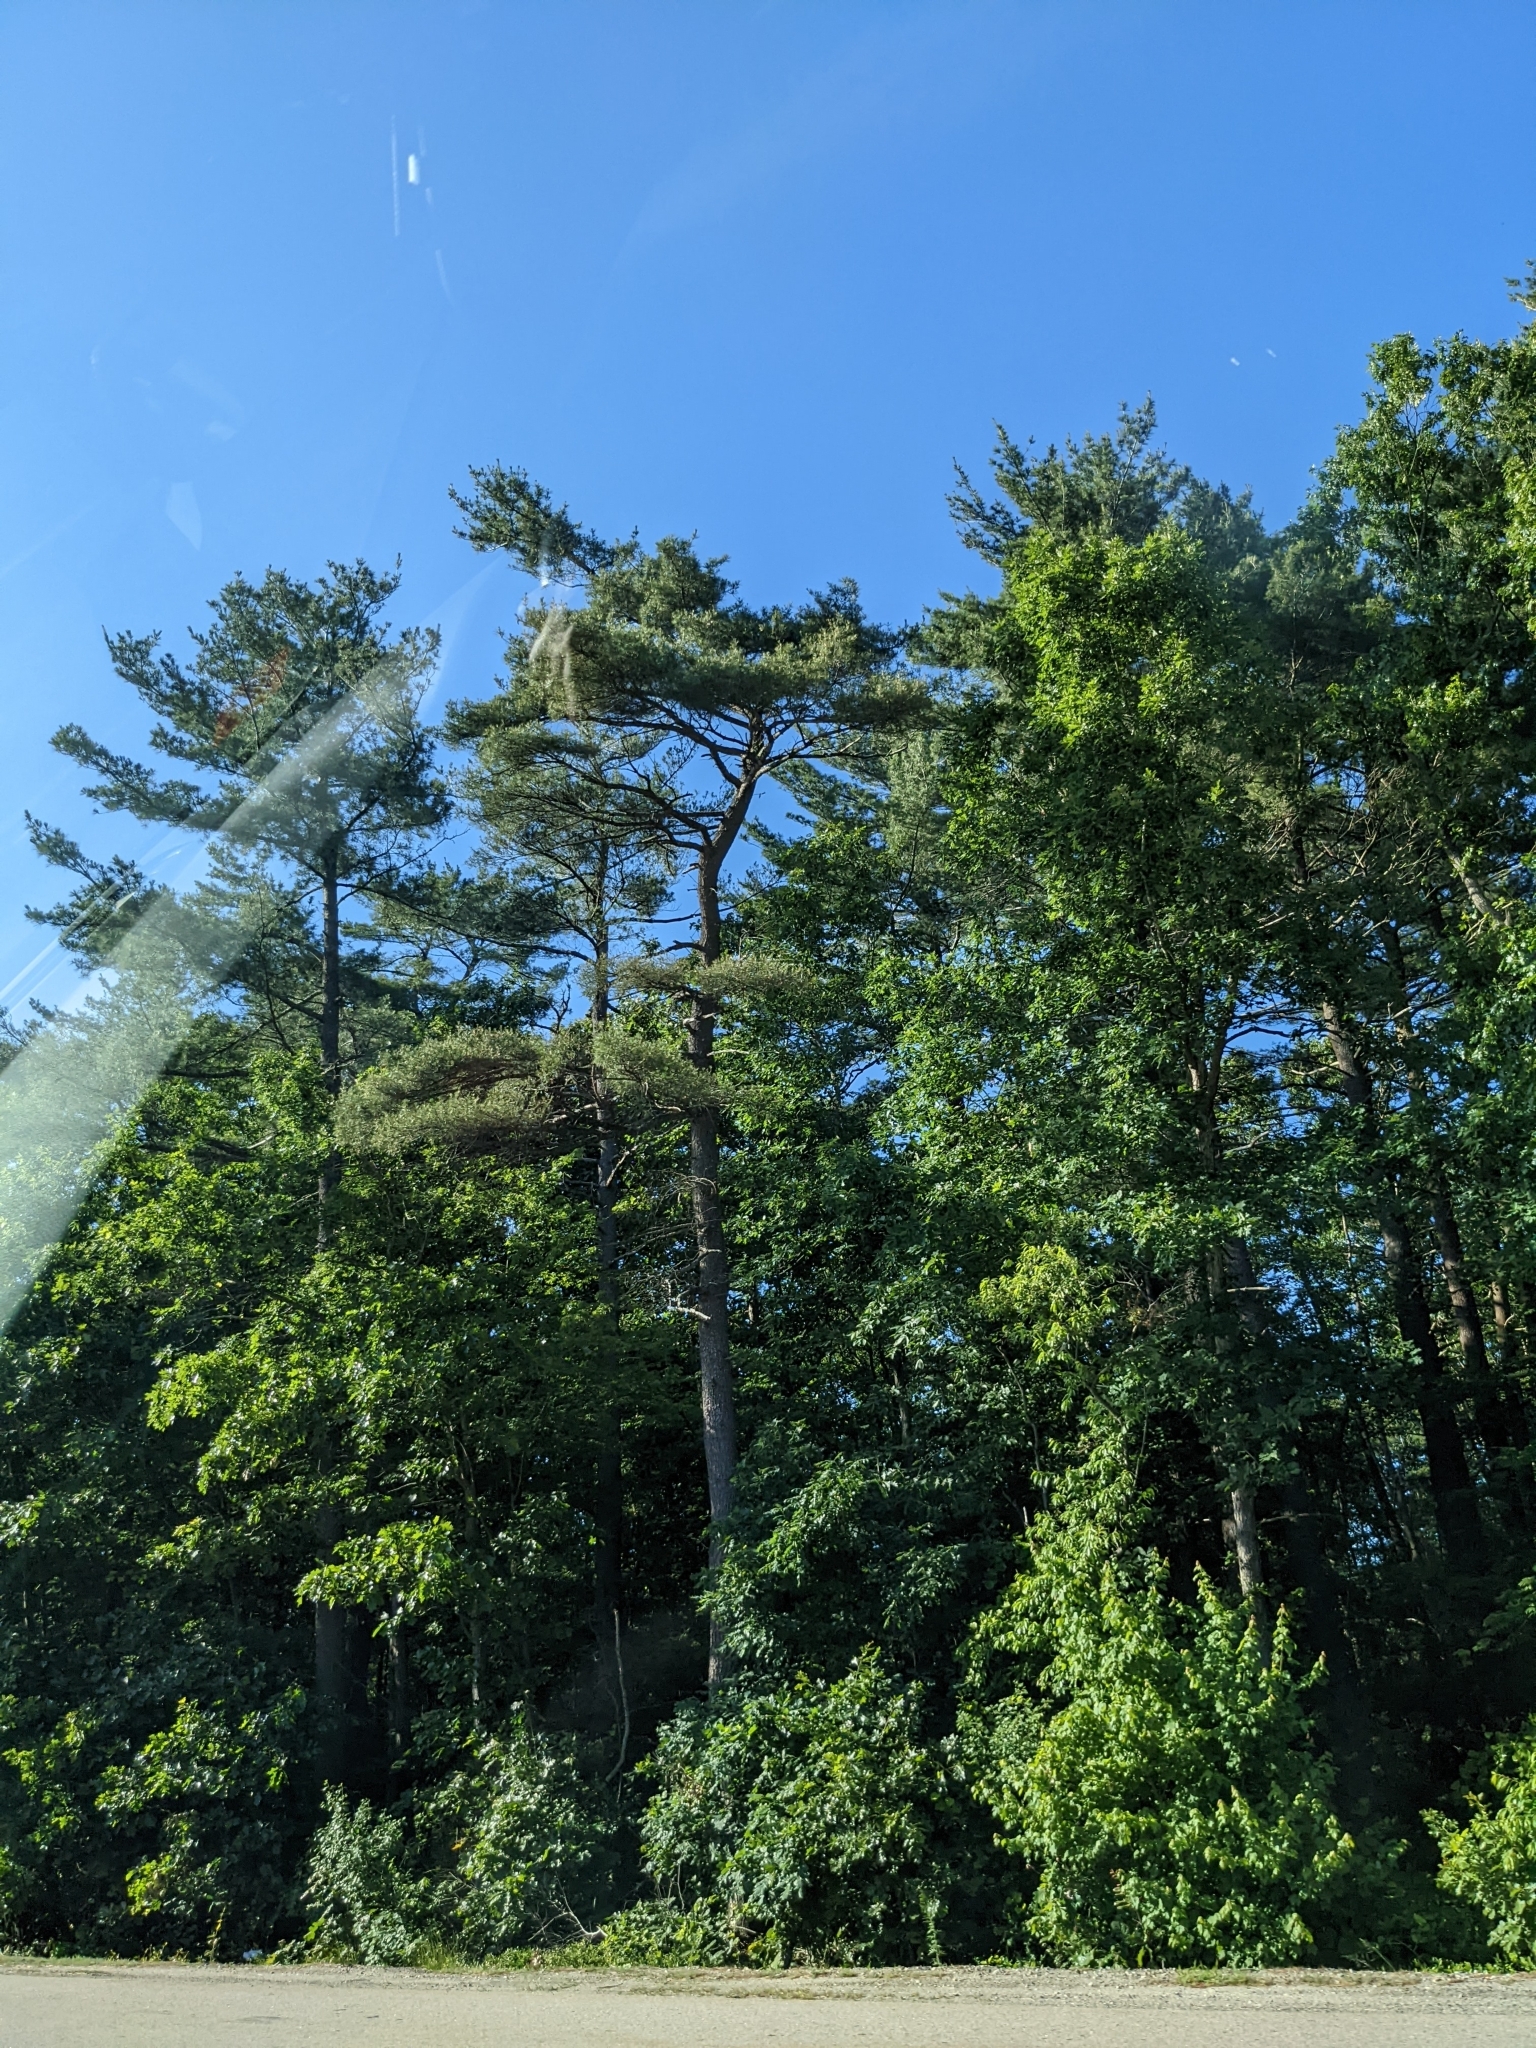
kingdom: Plantae
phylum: Tracheophyta
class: Pinopsida
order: Pinales
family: Pinaceae
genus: Pinus
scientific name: Pinus strobus
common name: Weymouth pine
